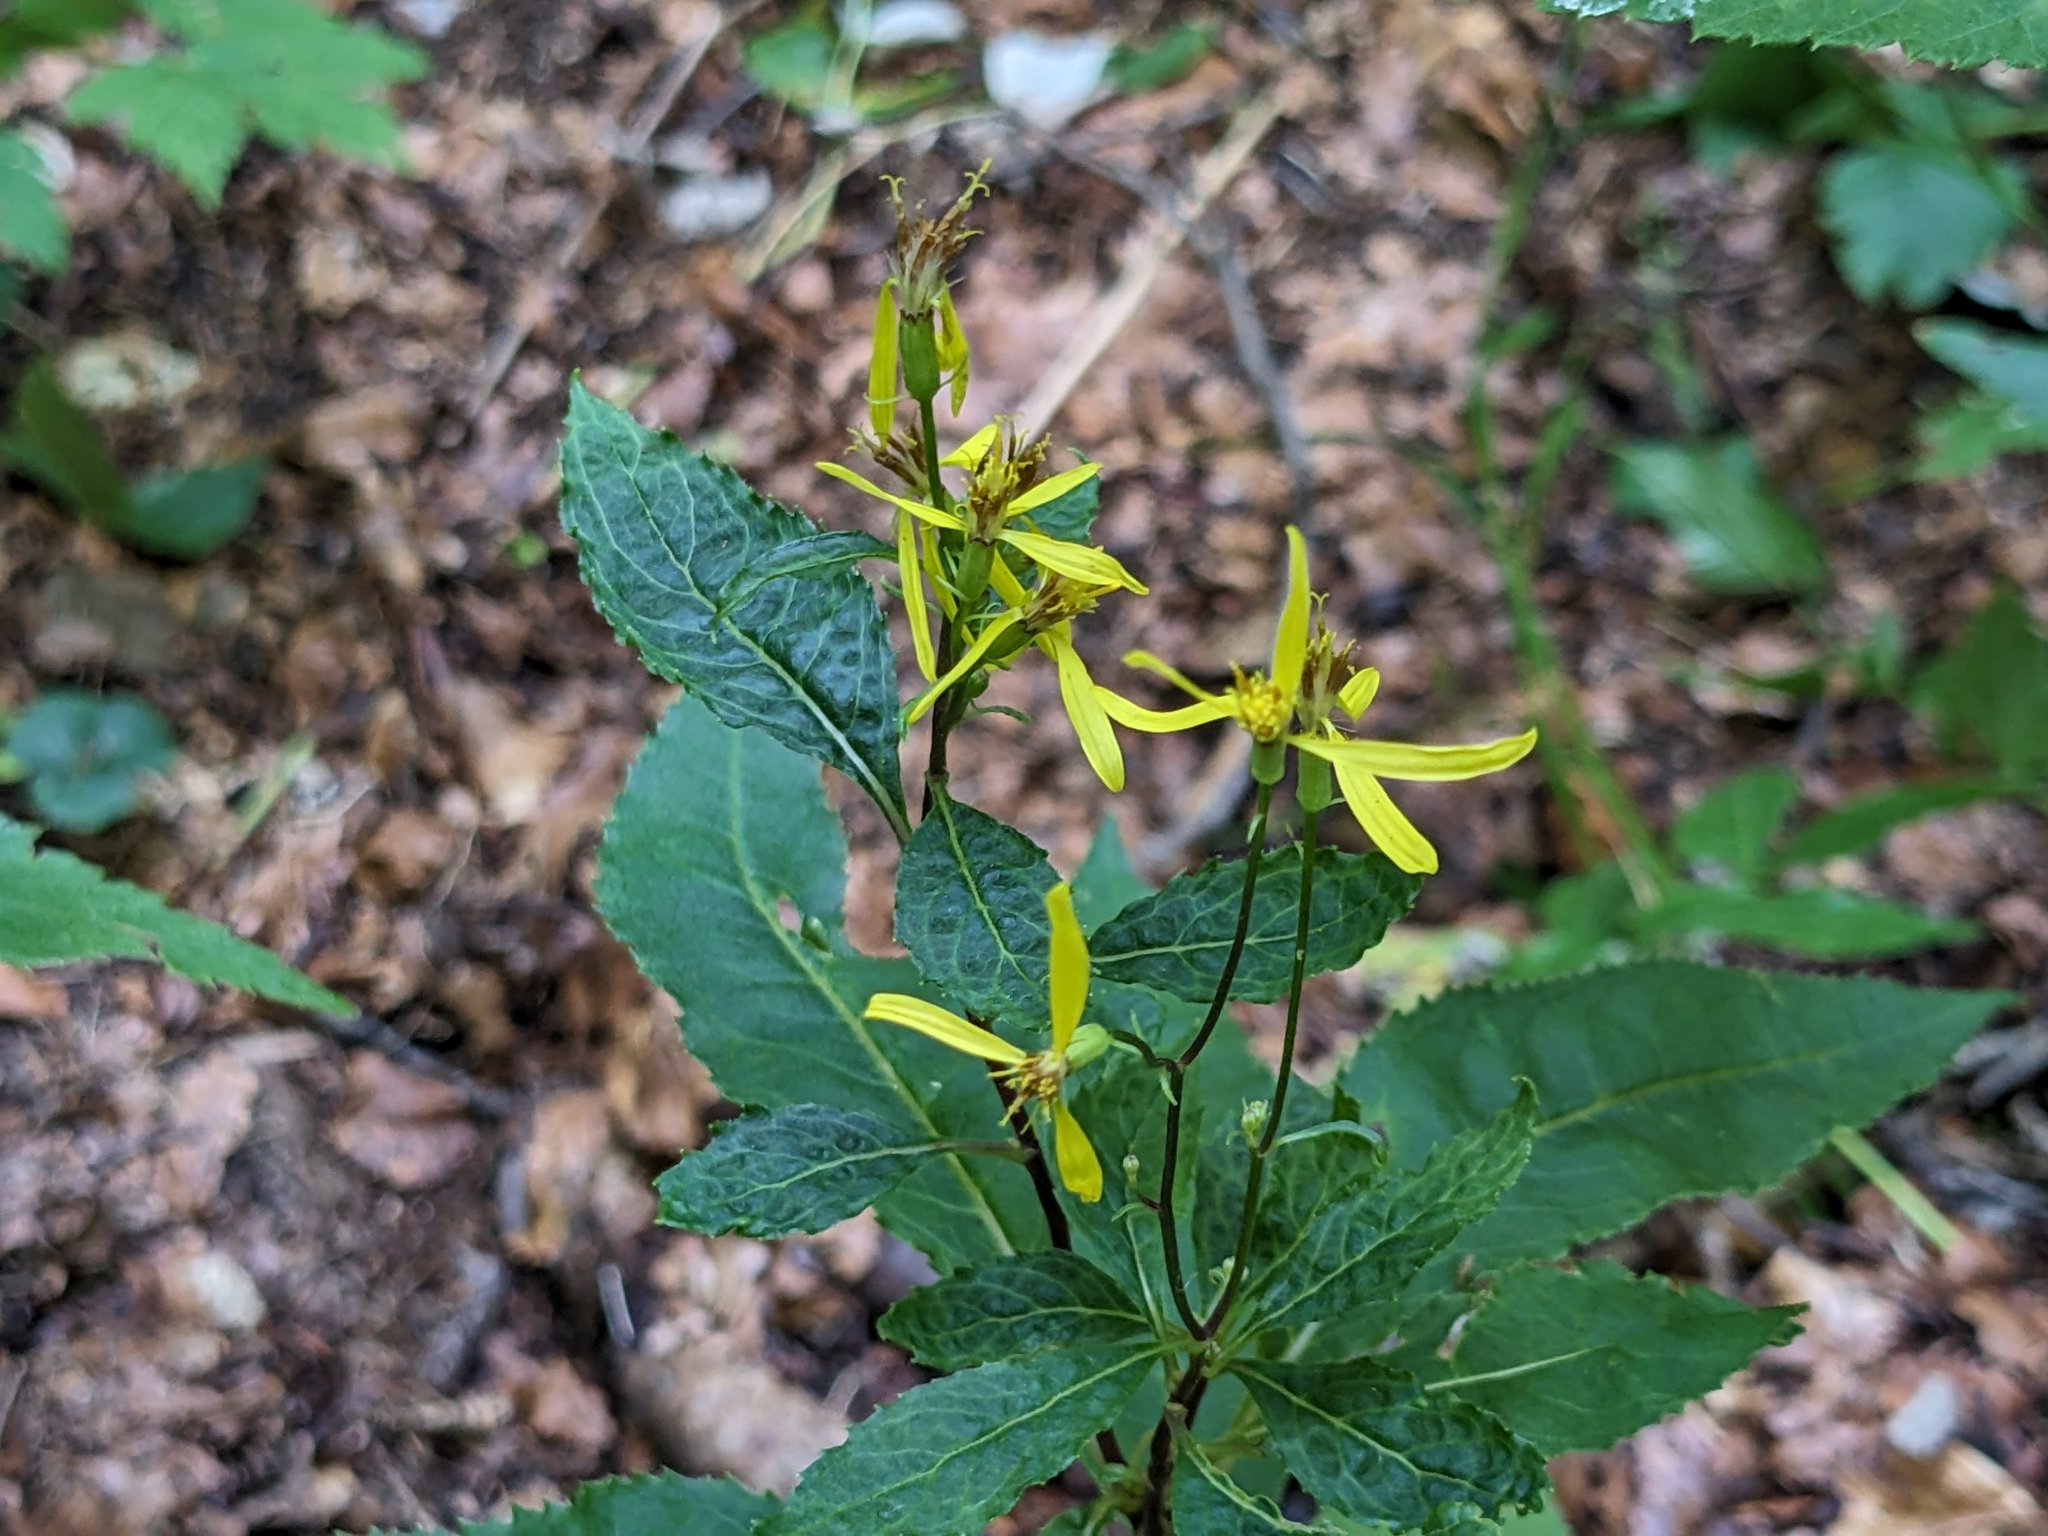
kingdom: Plantae
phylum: Tracheophyta
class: Magnoliopsida
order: Asterales
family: Asteraceae
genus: Senecio
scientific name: Senecio ovatus
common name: Wood ragwort
